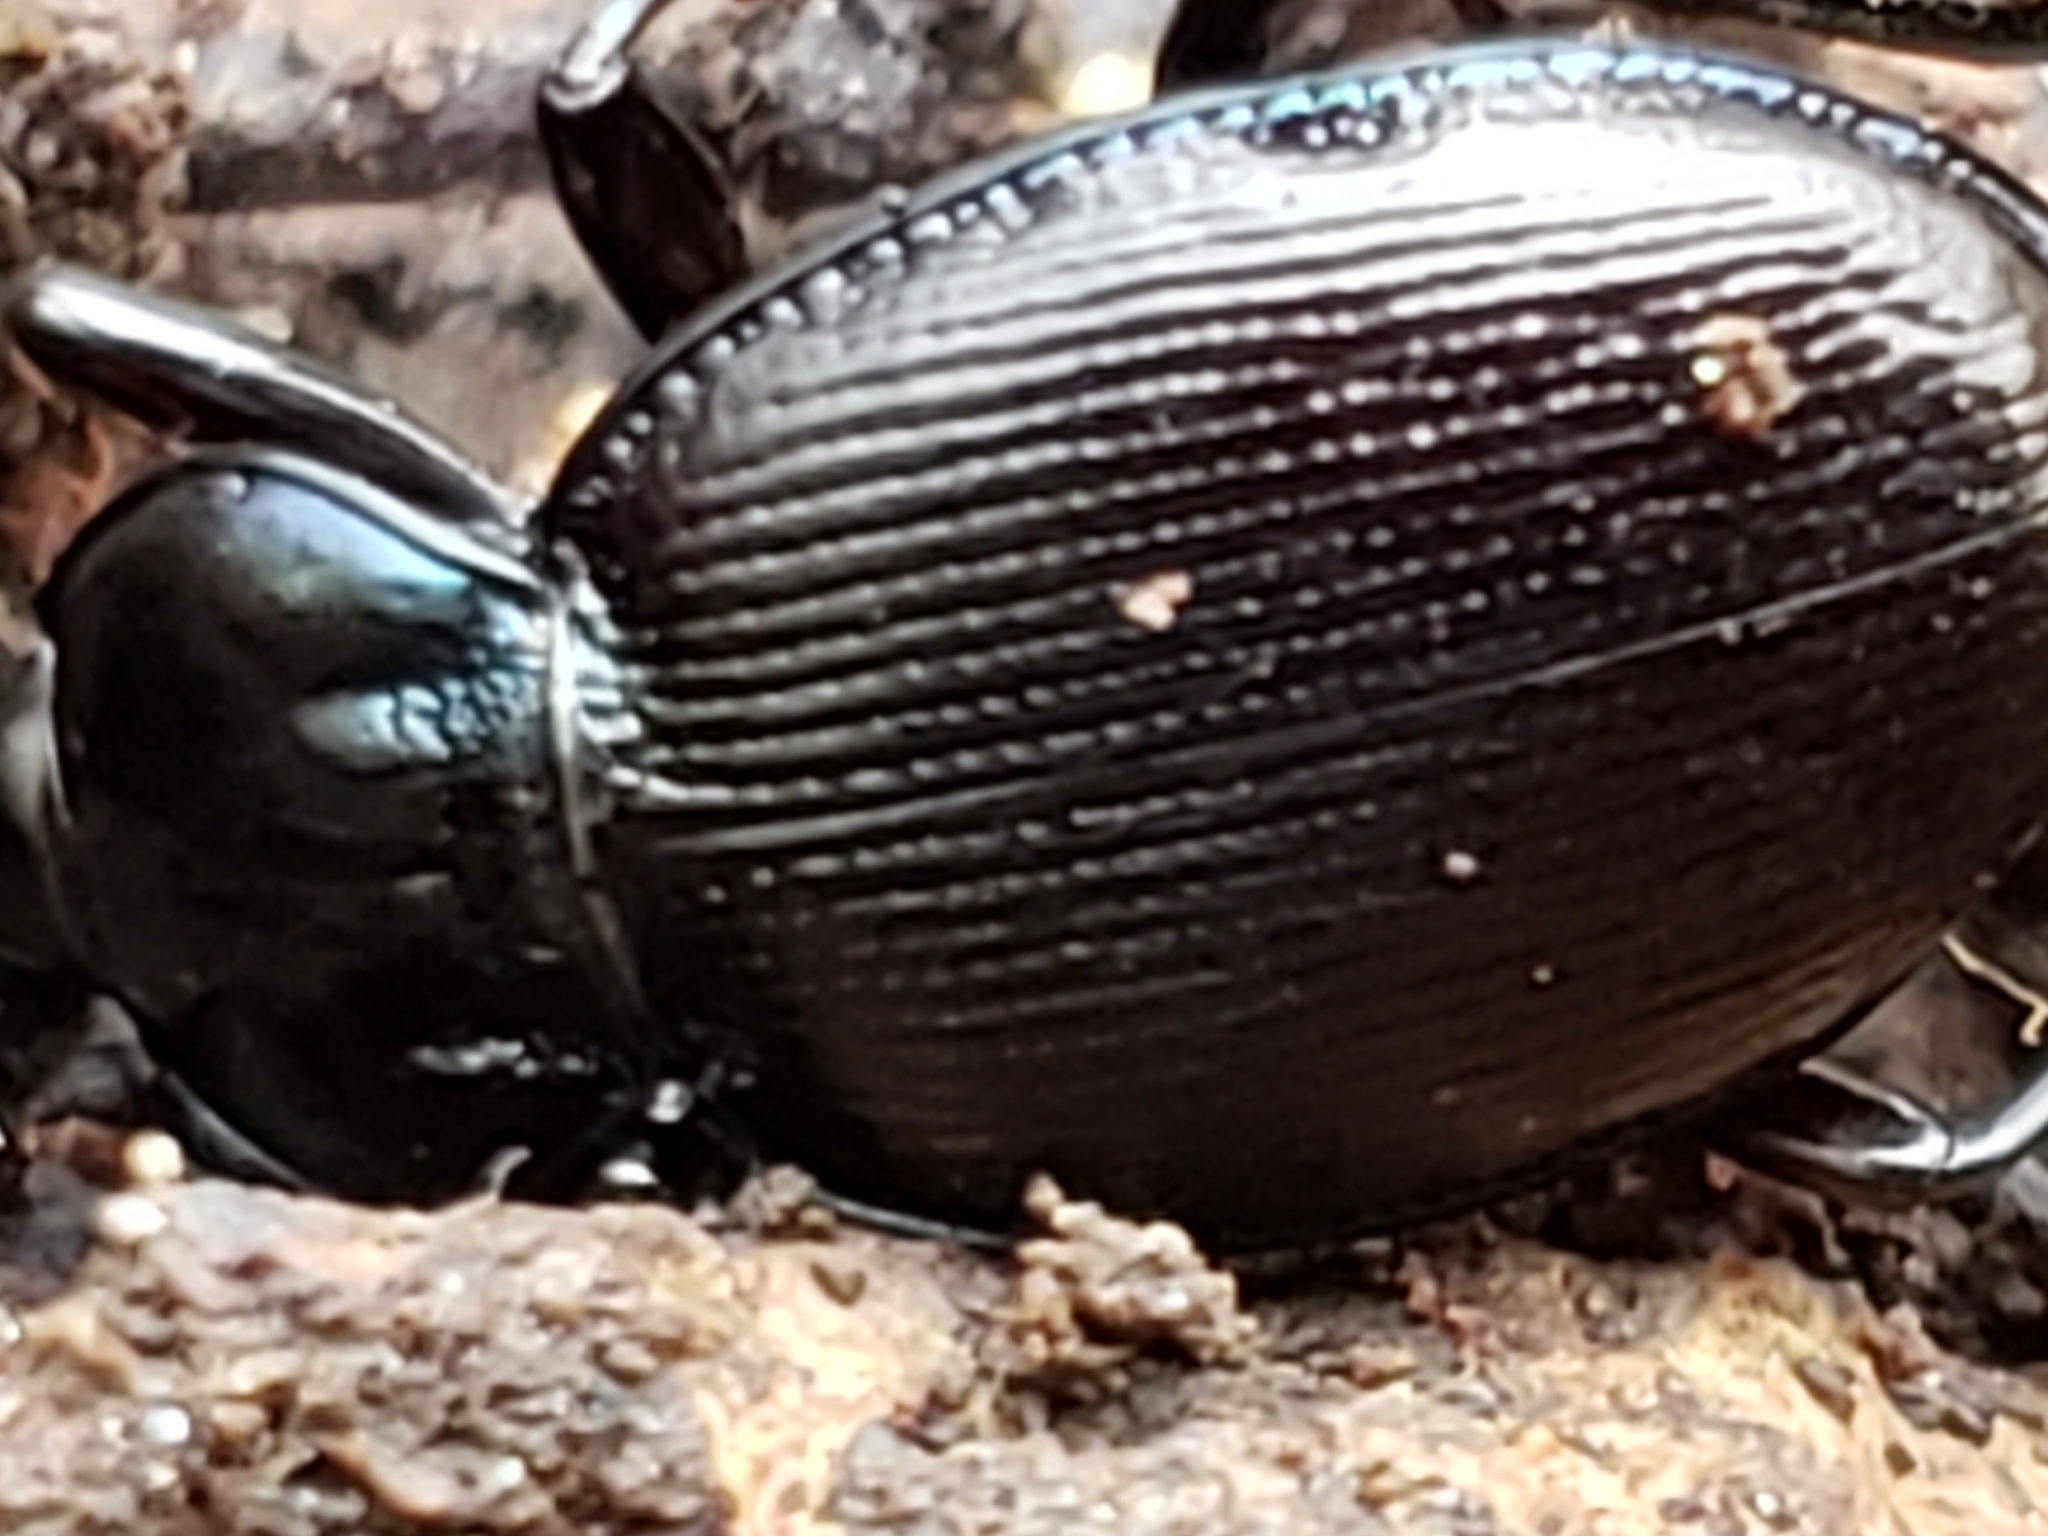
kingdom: Animalia
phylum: Arthropoda
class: Insecta
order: Coleoptera
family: Carabidae
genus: Sphaeroderus
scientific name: Sphaeroderus stenostomus
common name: Small snail-eating ground beetle
